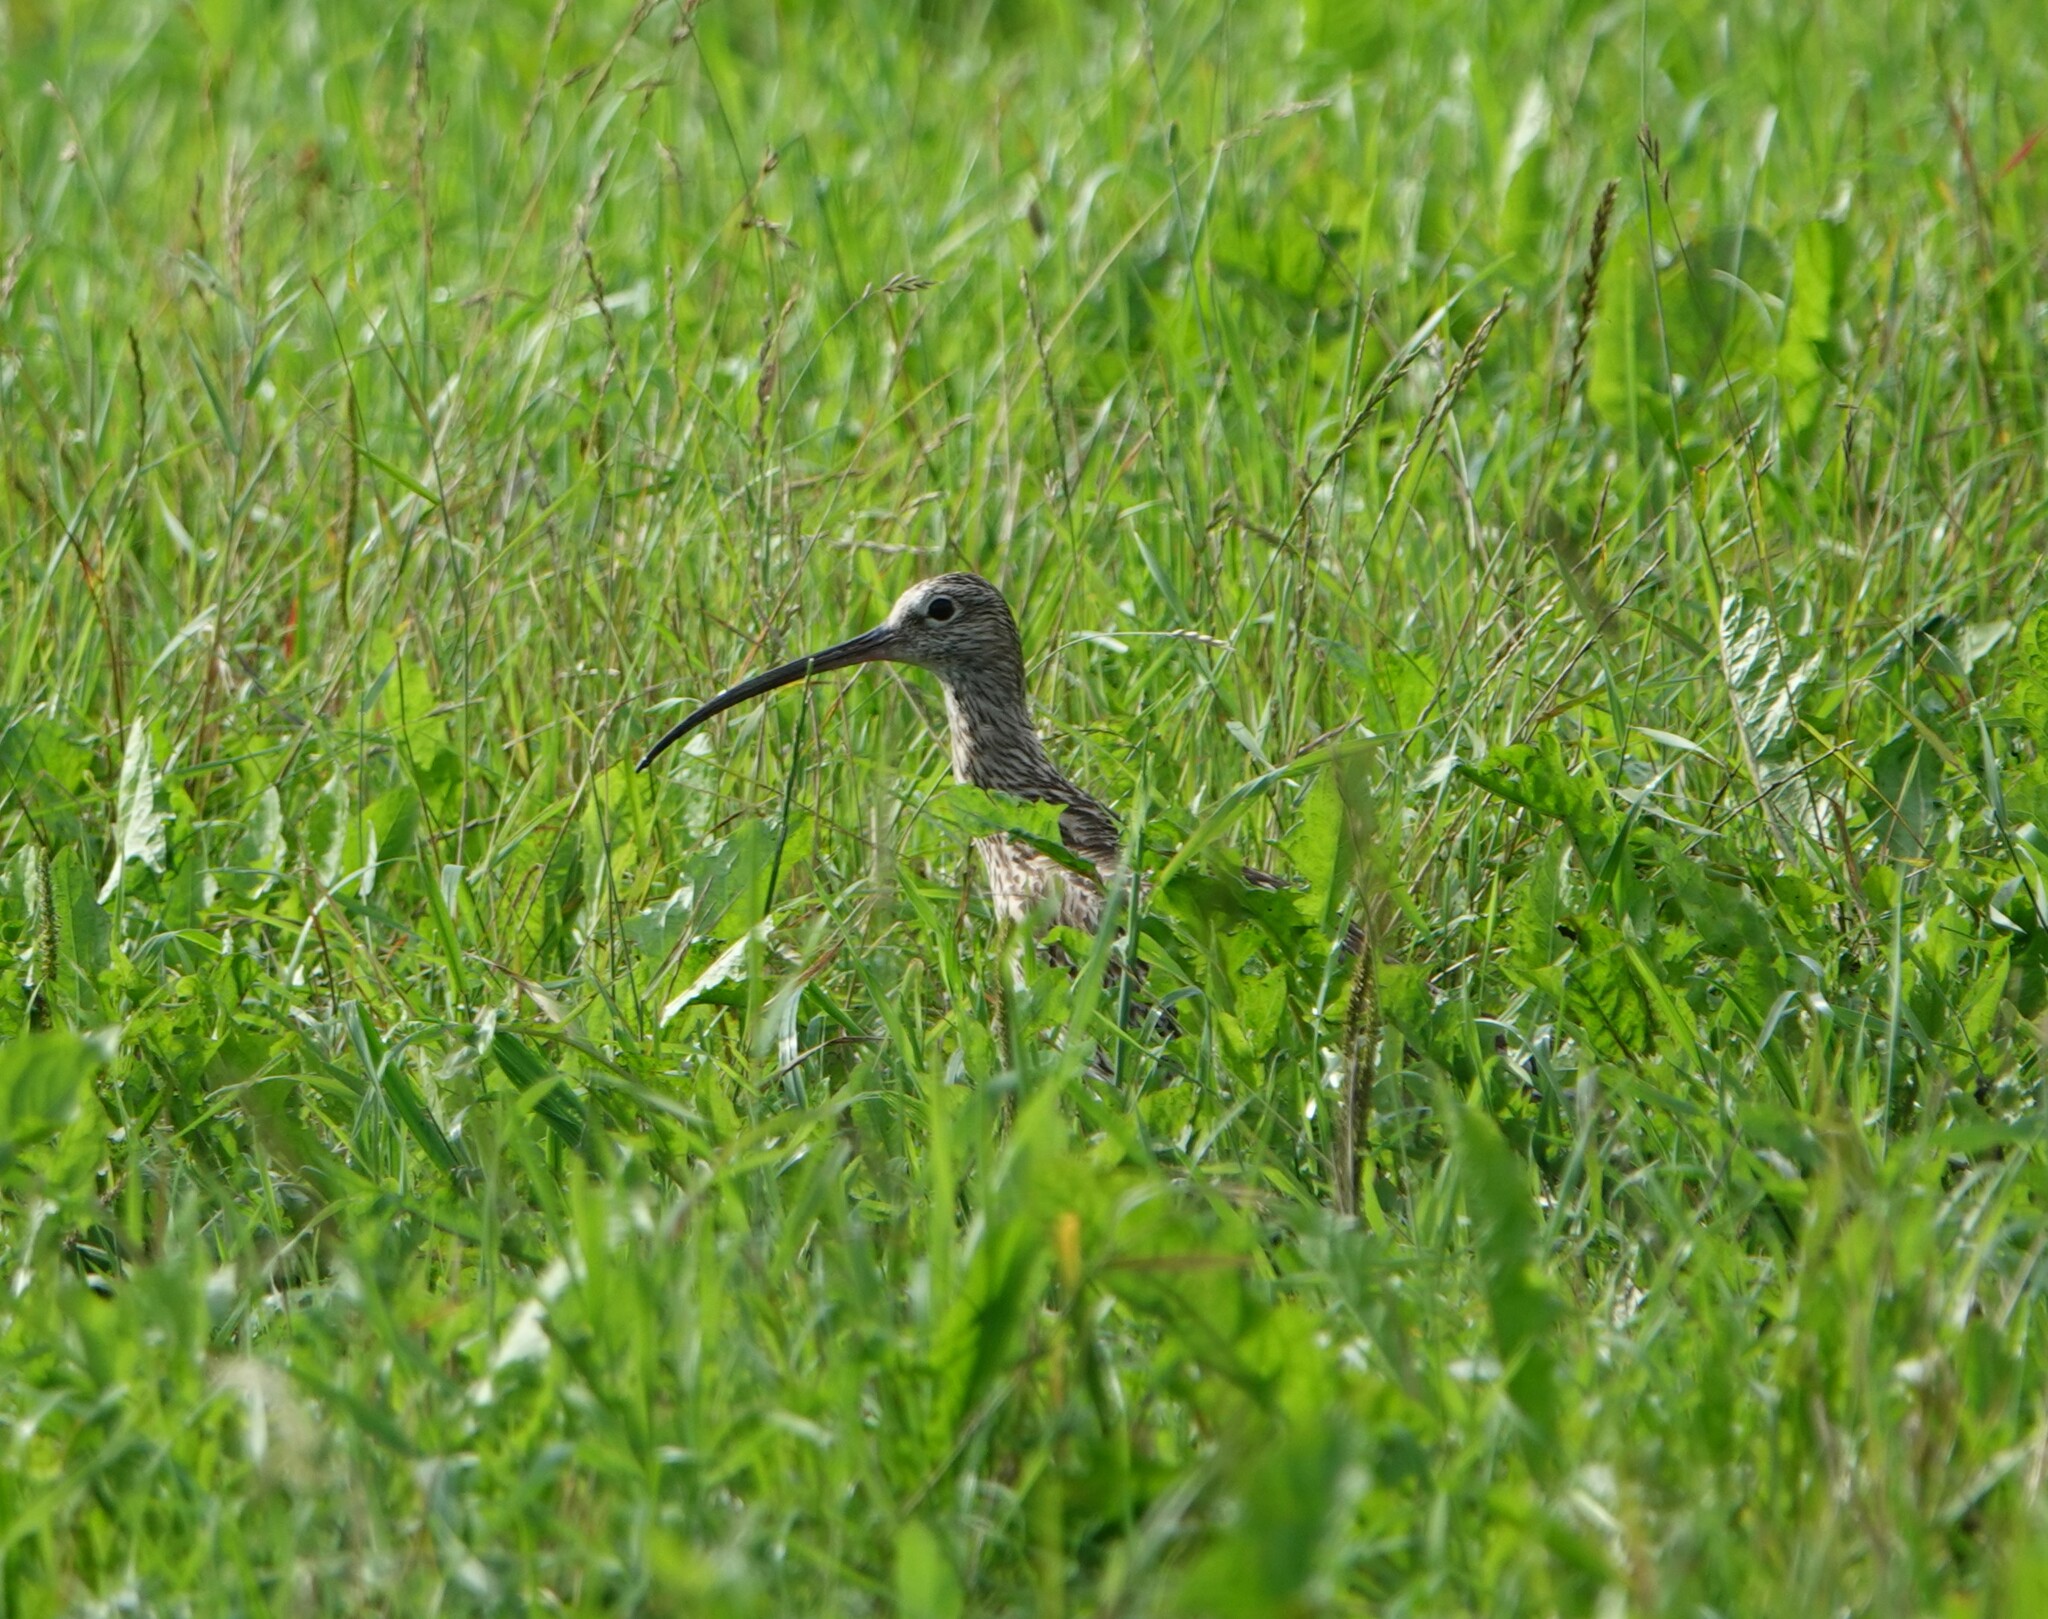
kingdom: Animalia
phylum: Chordata
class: Aves
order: Charadriiformes
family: Scolopacidae
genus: Numenius
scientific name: Numenius arquata
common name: Eurasian curlew
